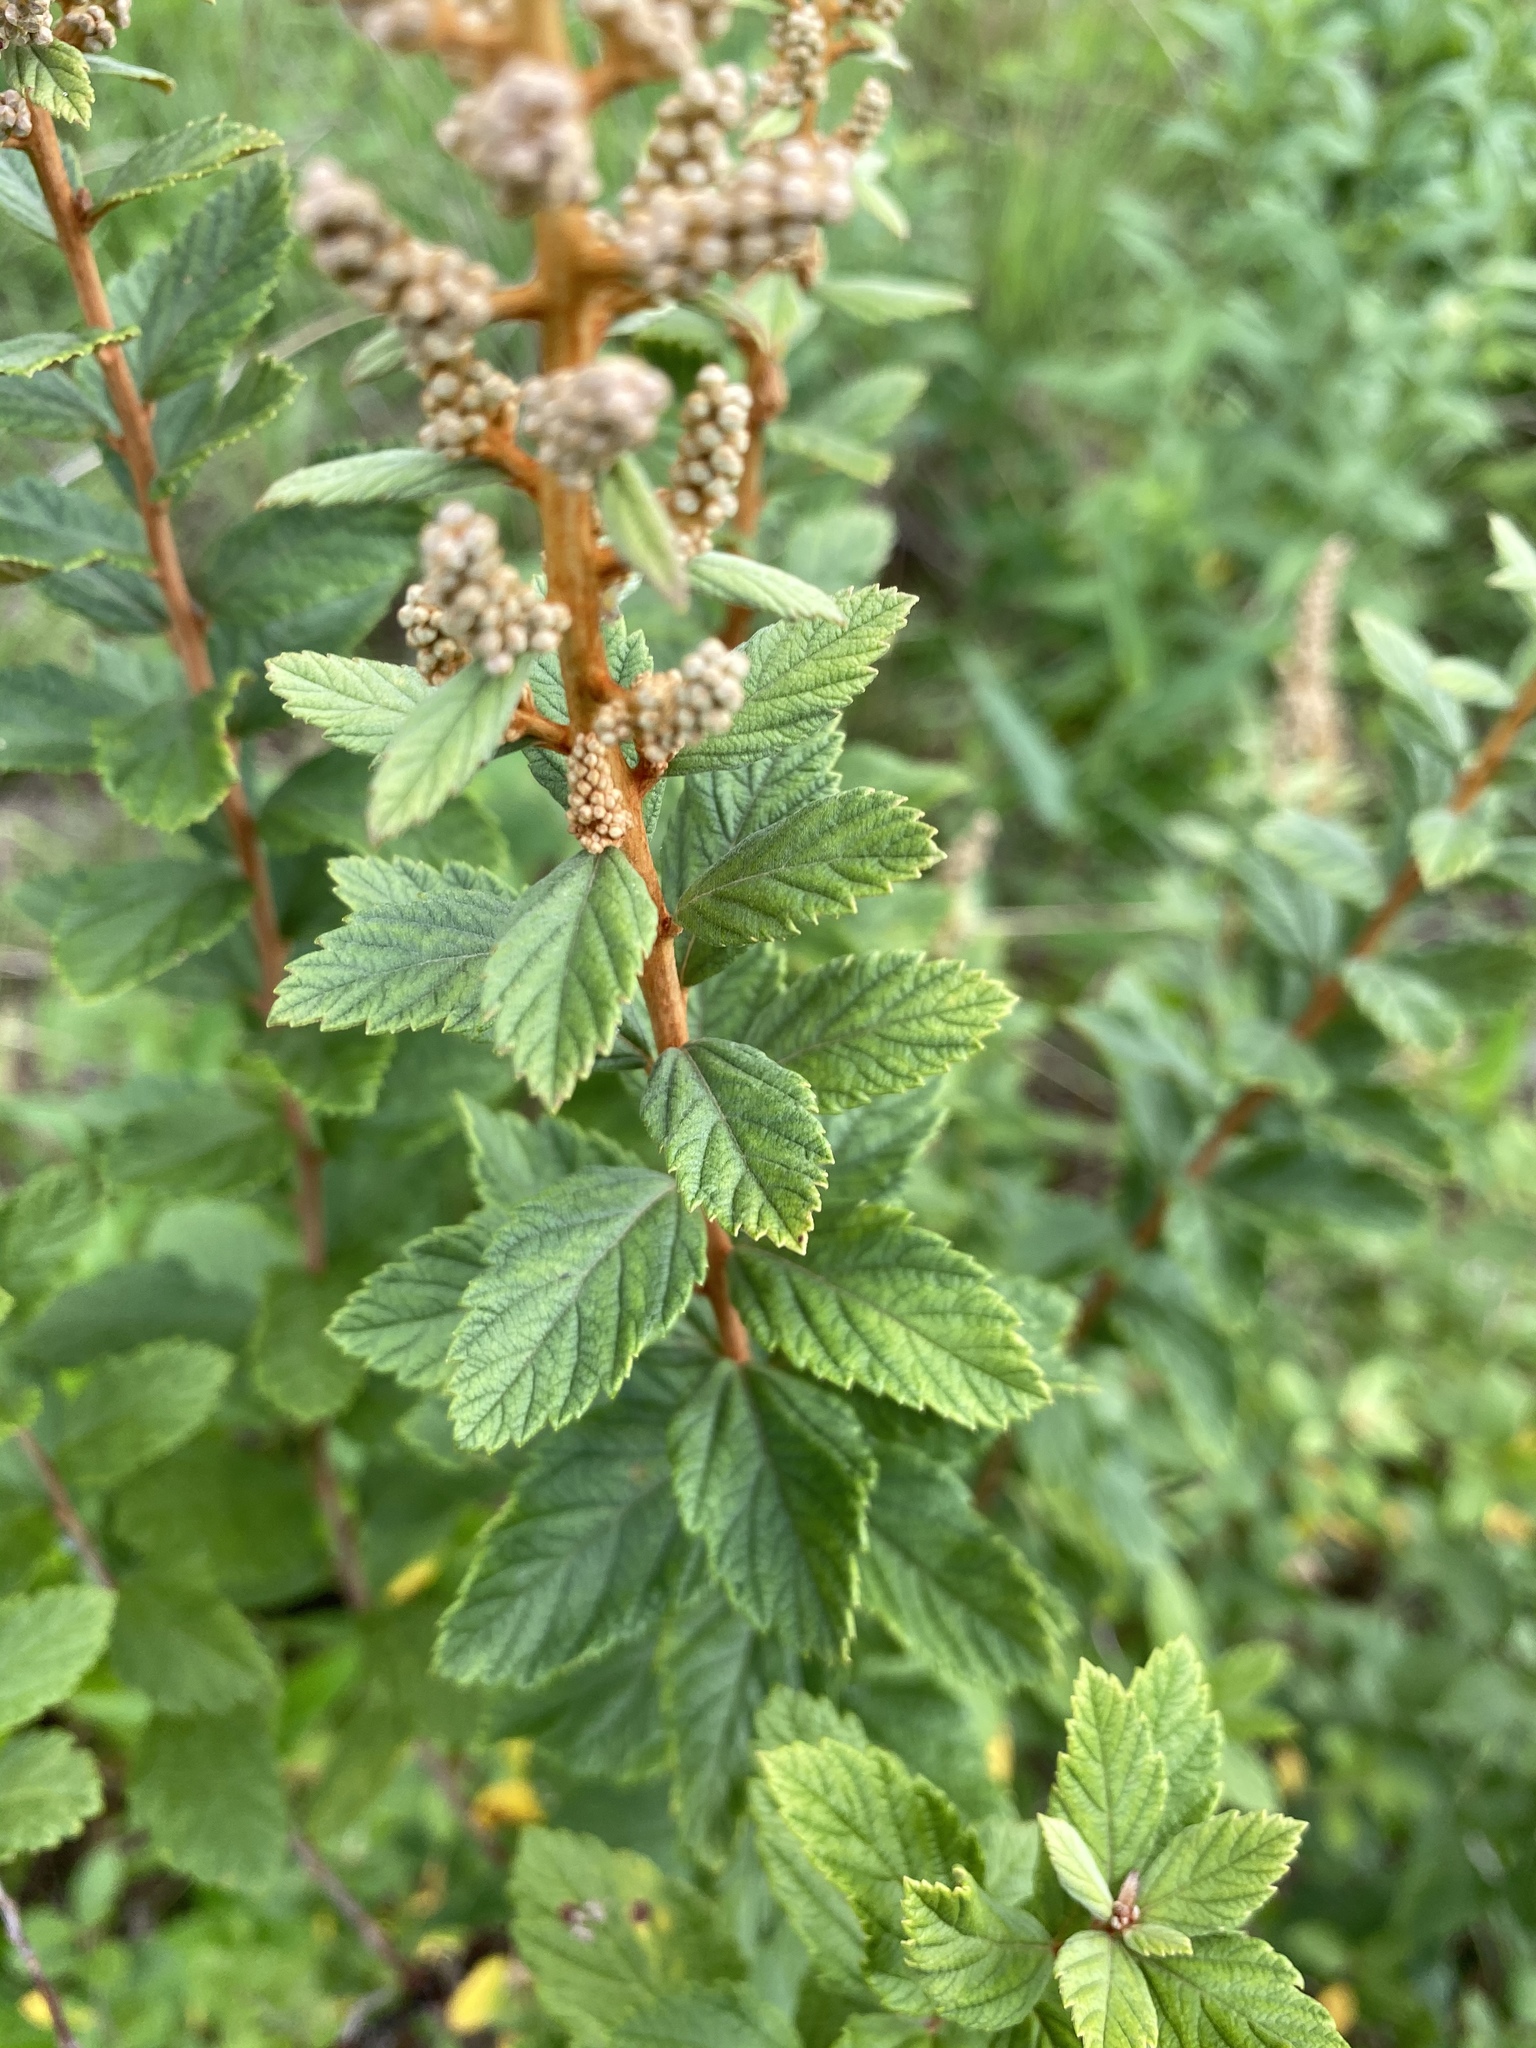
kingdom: Plantae
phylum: Tracheophyta
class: Magnoliopsida
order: Rosales
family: Rosaceae
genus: Spiraea
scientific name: Spiraea tomentosa
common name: Hardhack
